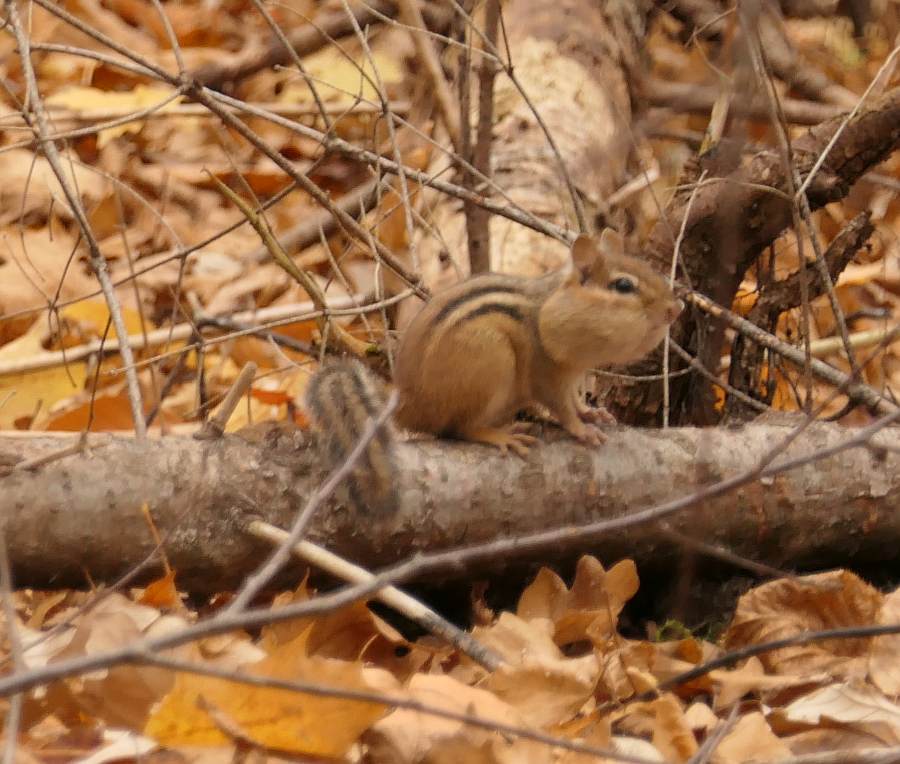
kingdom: Animalia
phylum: Chordata
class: Mammalia
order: Rodentia
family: Sciuridae
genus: Tamias
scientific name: Tamias striatus
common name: Eastern chipmunk
